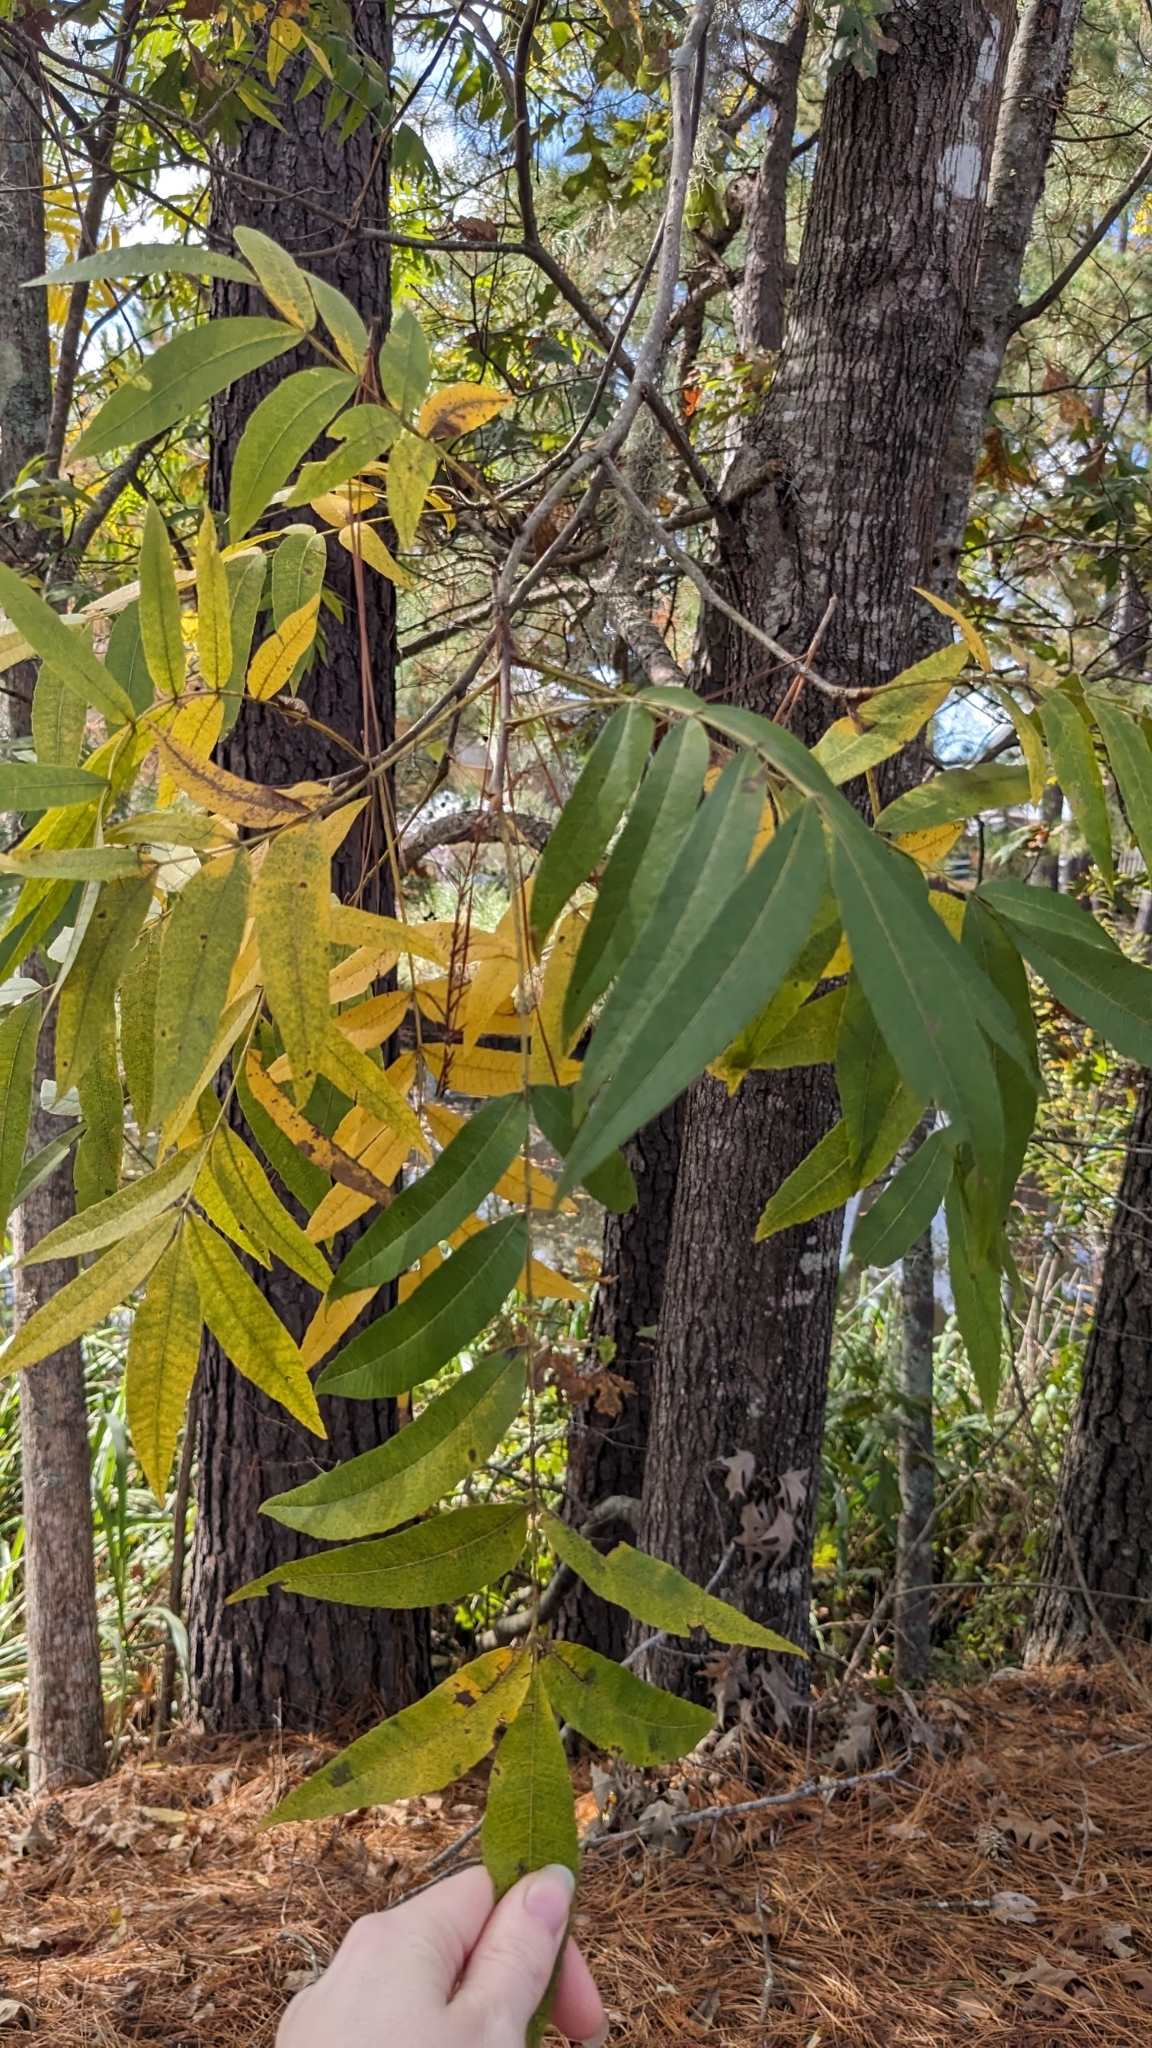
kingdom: Plantae
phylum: Tracheophyta
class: Magnoliopsida
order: Fagales
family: Juglandaceae
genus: Carya
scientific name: Carya illinoinensis
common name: Pecan
